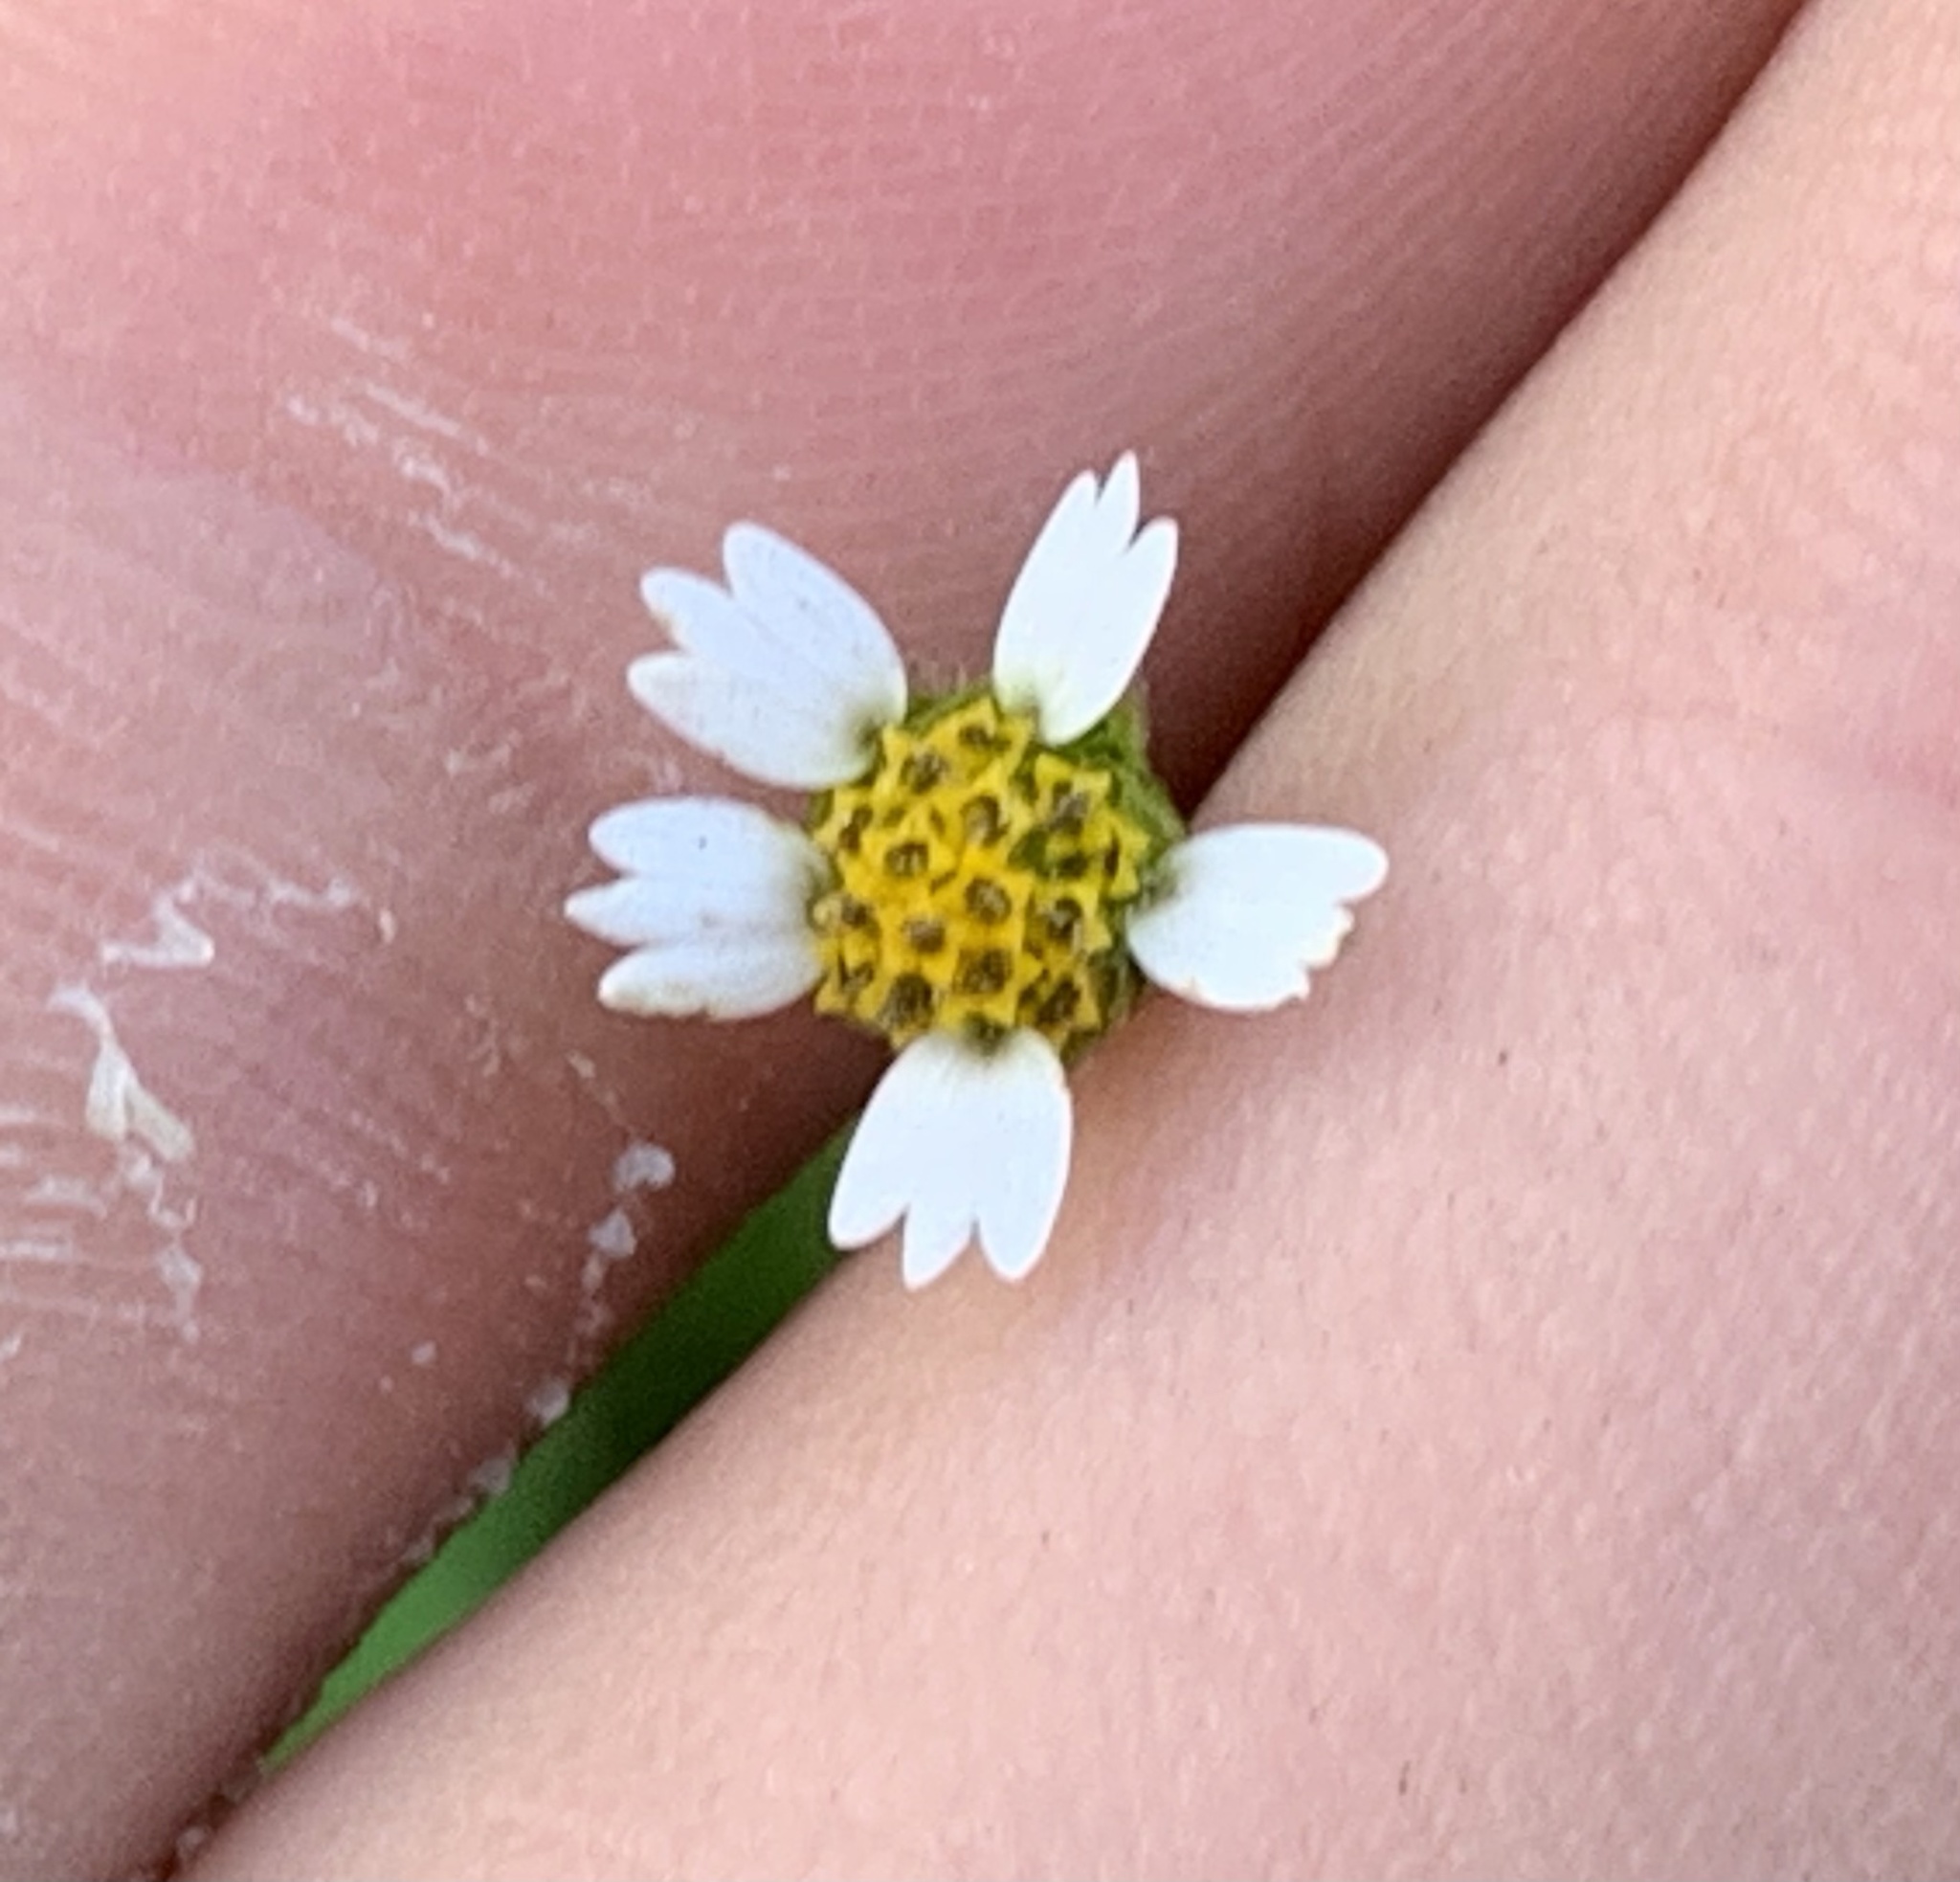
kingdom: Plantae
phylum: Tracheophyta
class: Magnoliopsida
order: Asterales
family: Asteraceae
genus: Galinsoga
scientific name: Galinsoga quadriradiata
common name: Shaggy soldier
